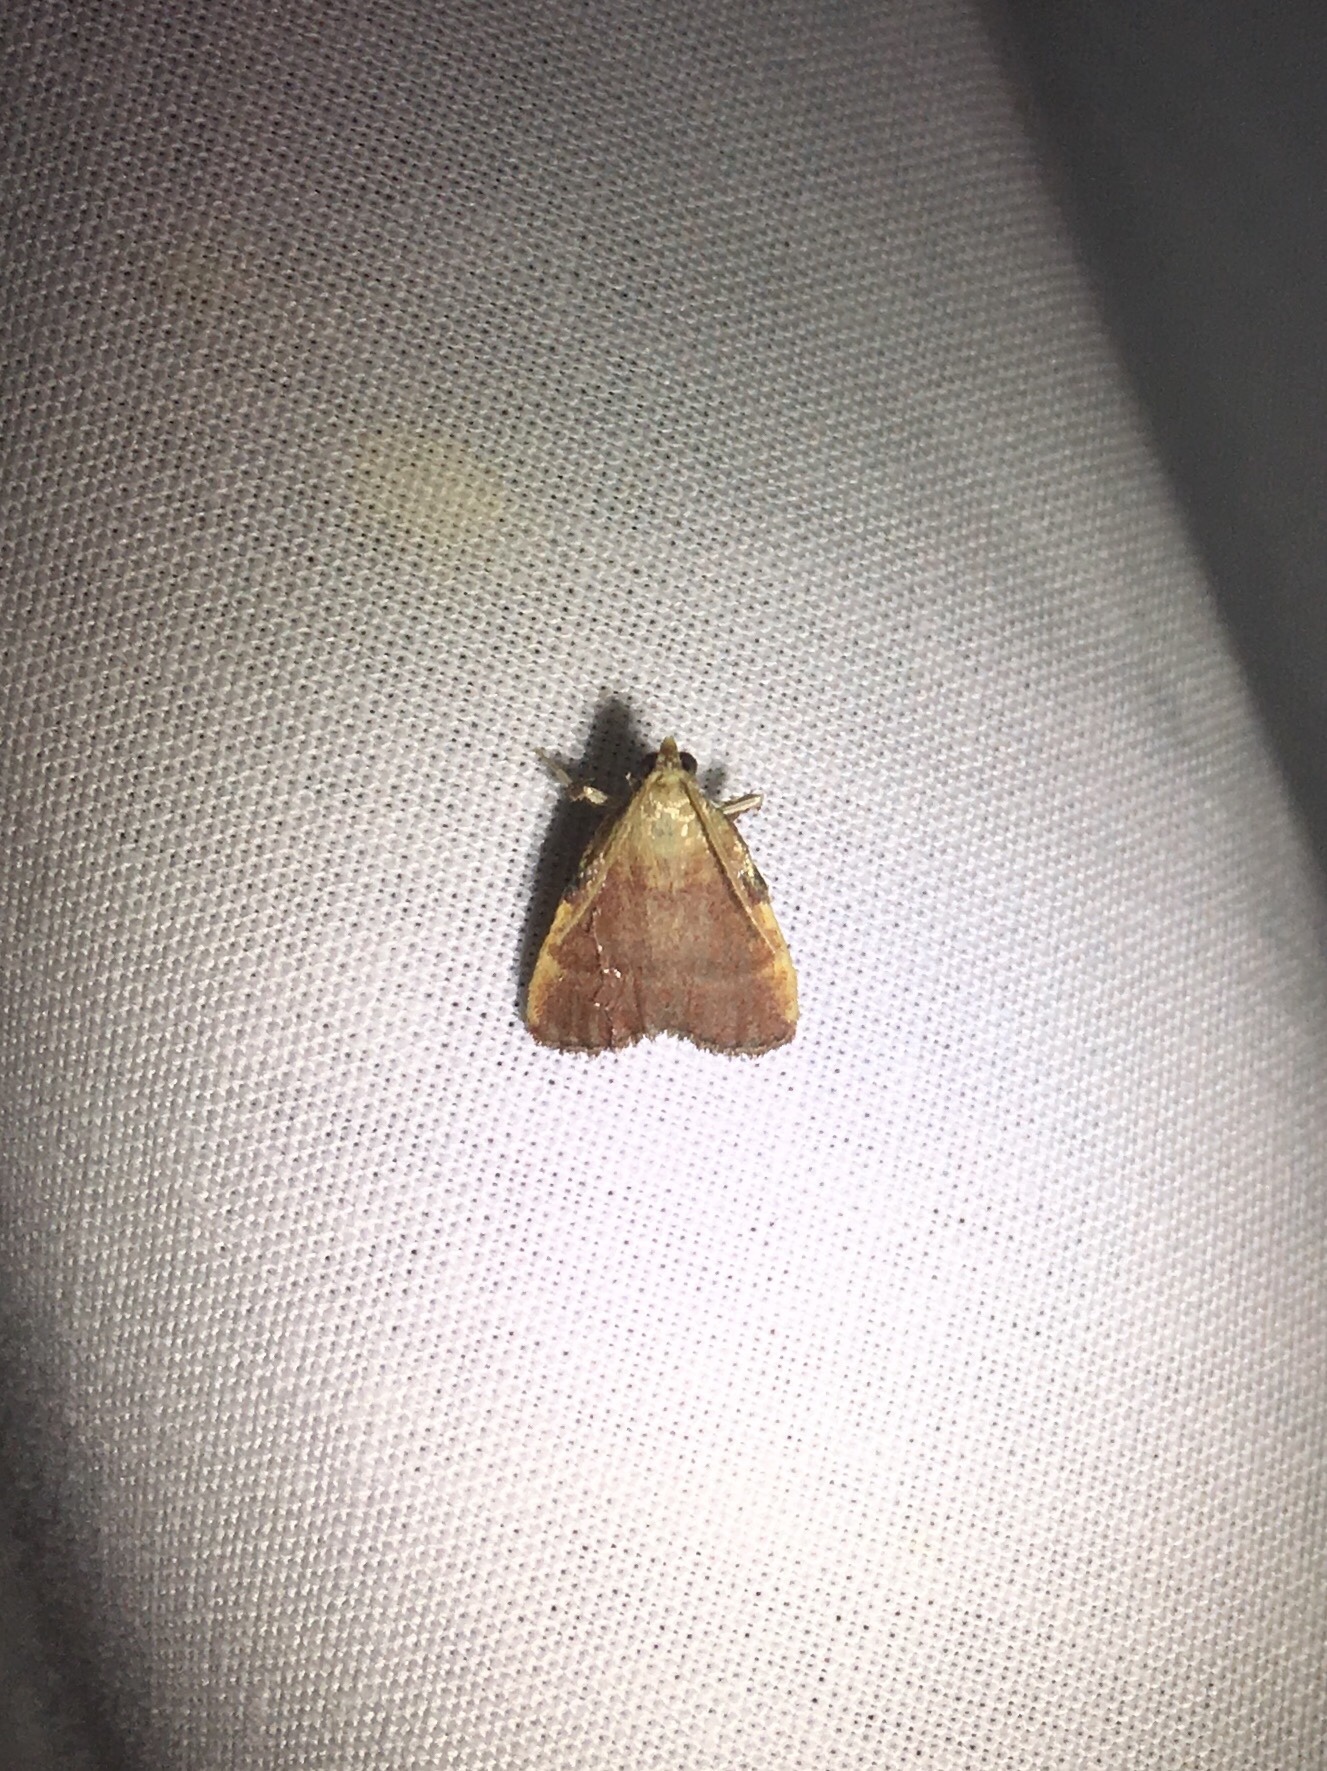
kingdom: Animalia
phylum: Arthropoda
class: Insecta
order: Lepidoptera
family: Pyralidae
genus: Condylolomia
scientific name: Condylolomia participialis
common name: Drab condylolomia moth
